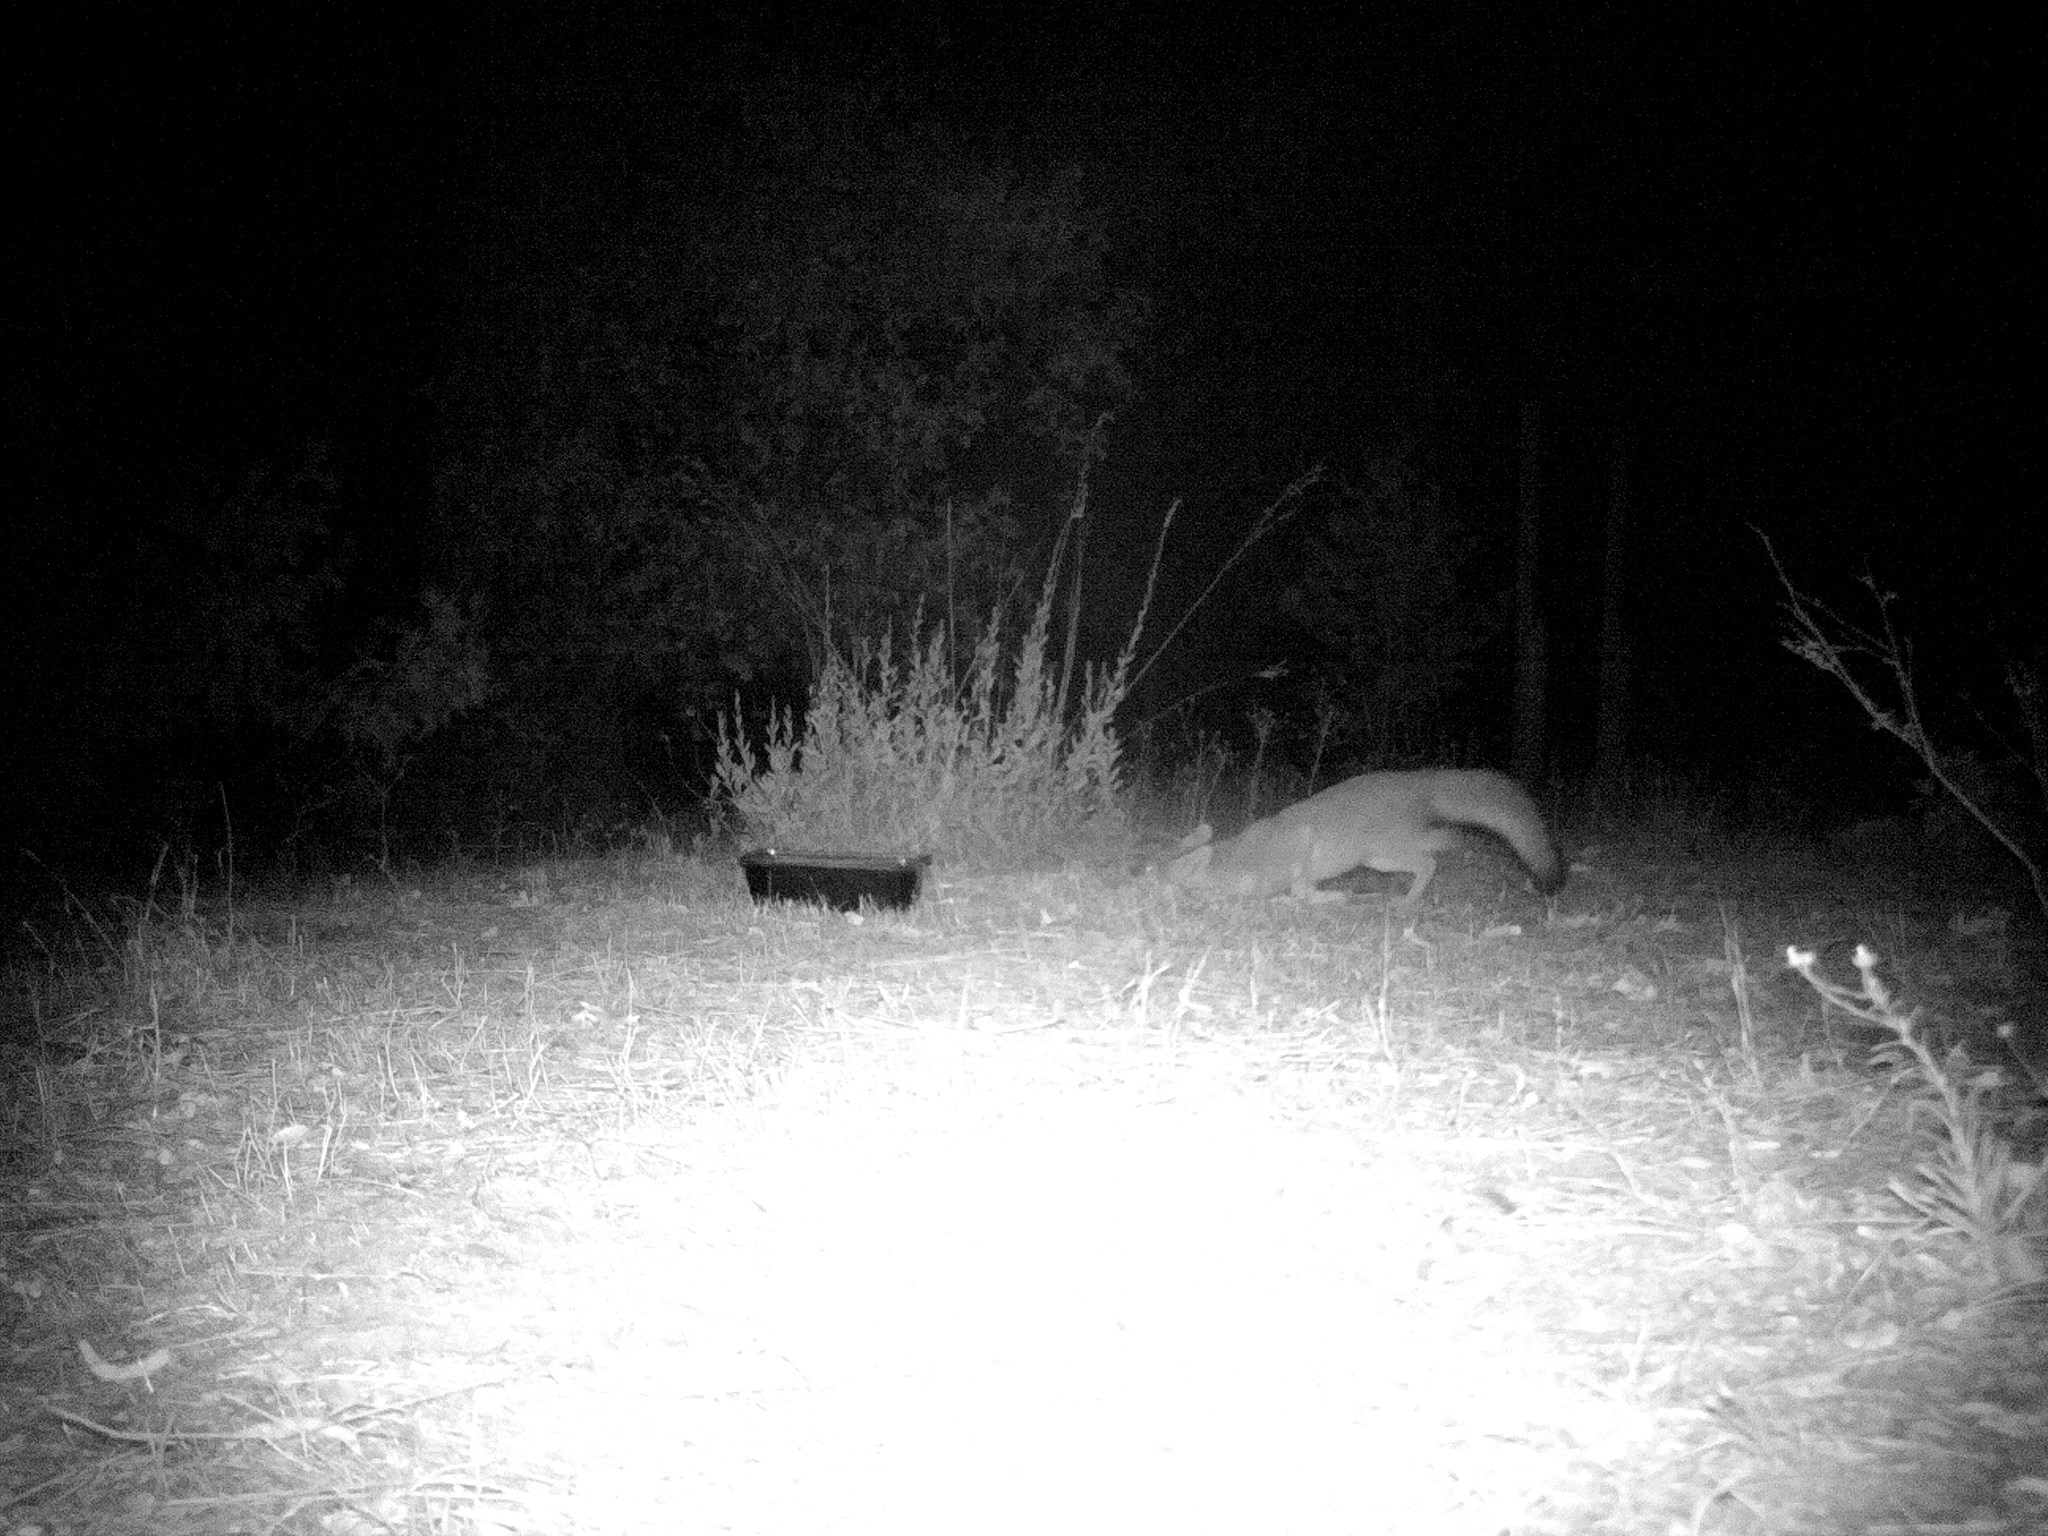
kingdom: Animalia
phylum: Chordata
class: Mammalia
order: Carnivora
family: Canidae
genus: Urocyon
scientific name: Urocyon cinereoargenteus
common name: Gray fox
